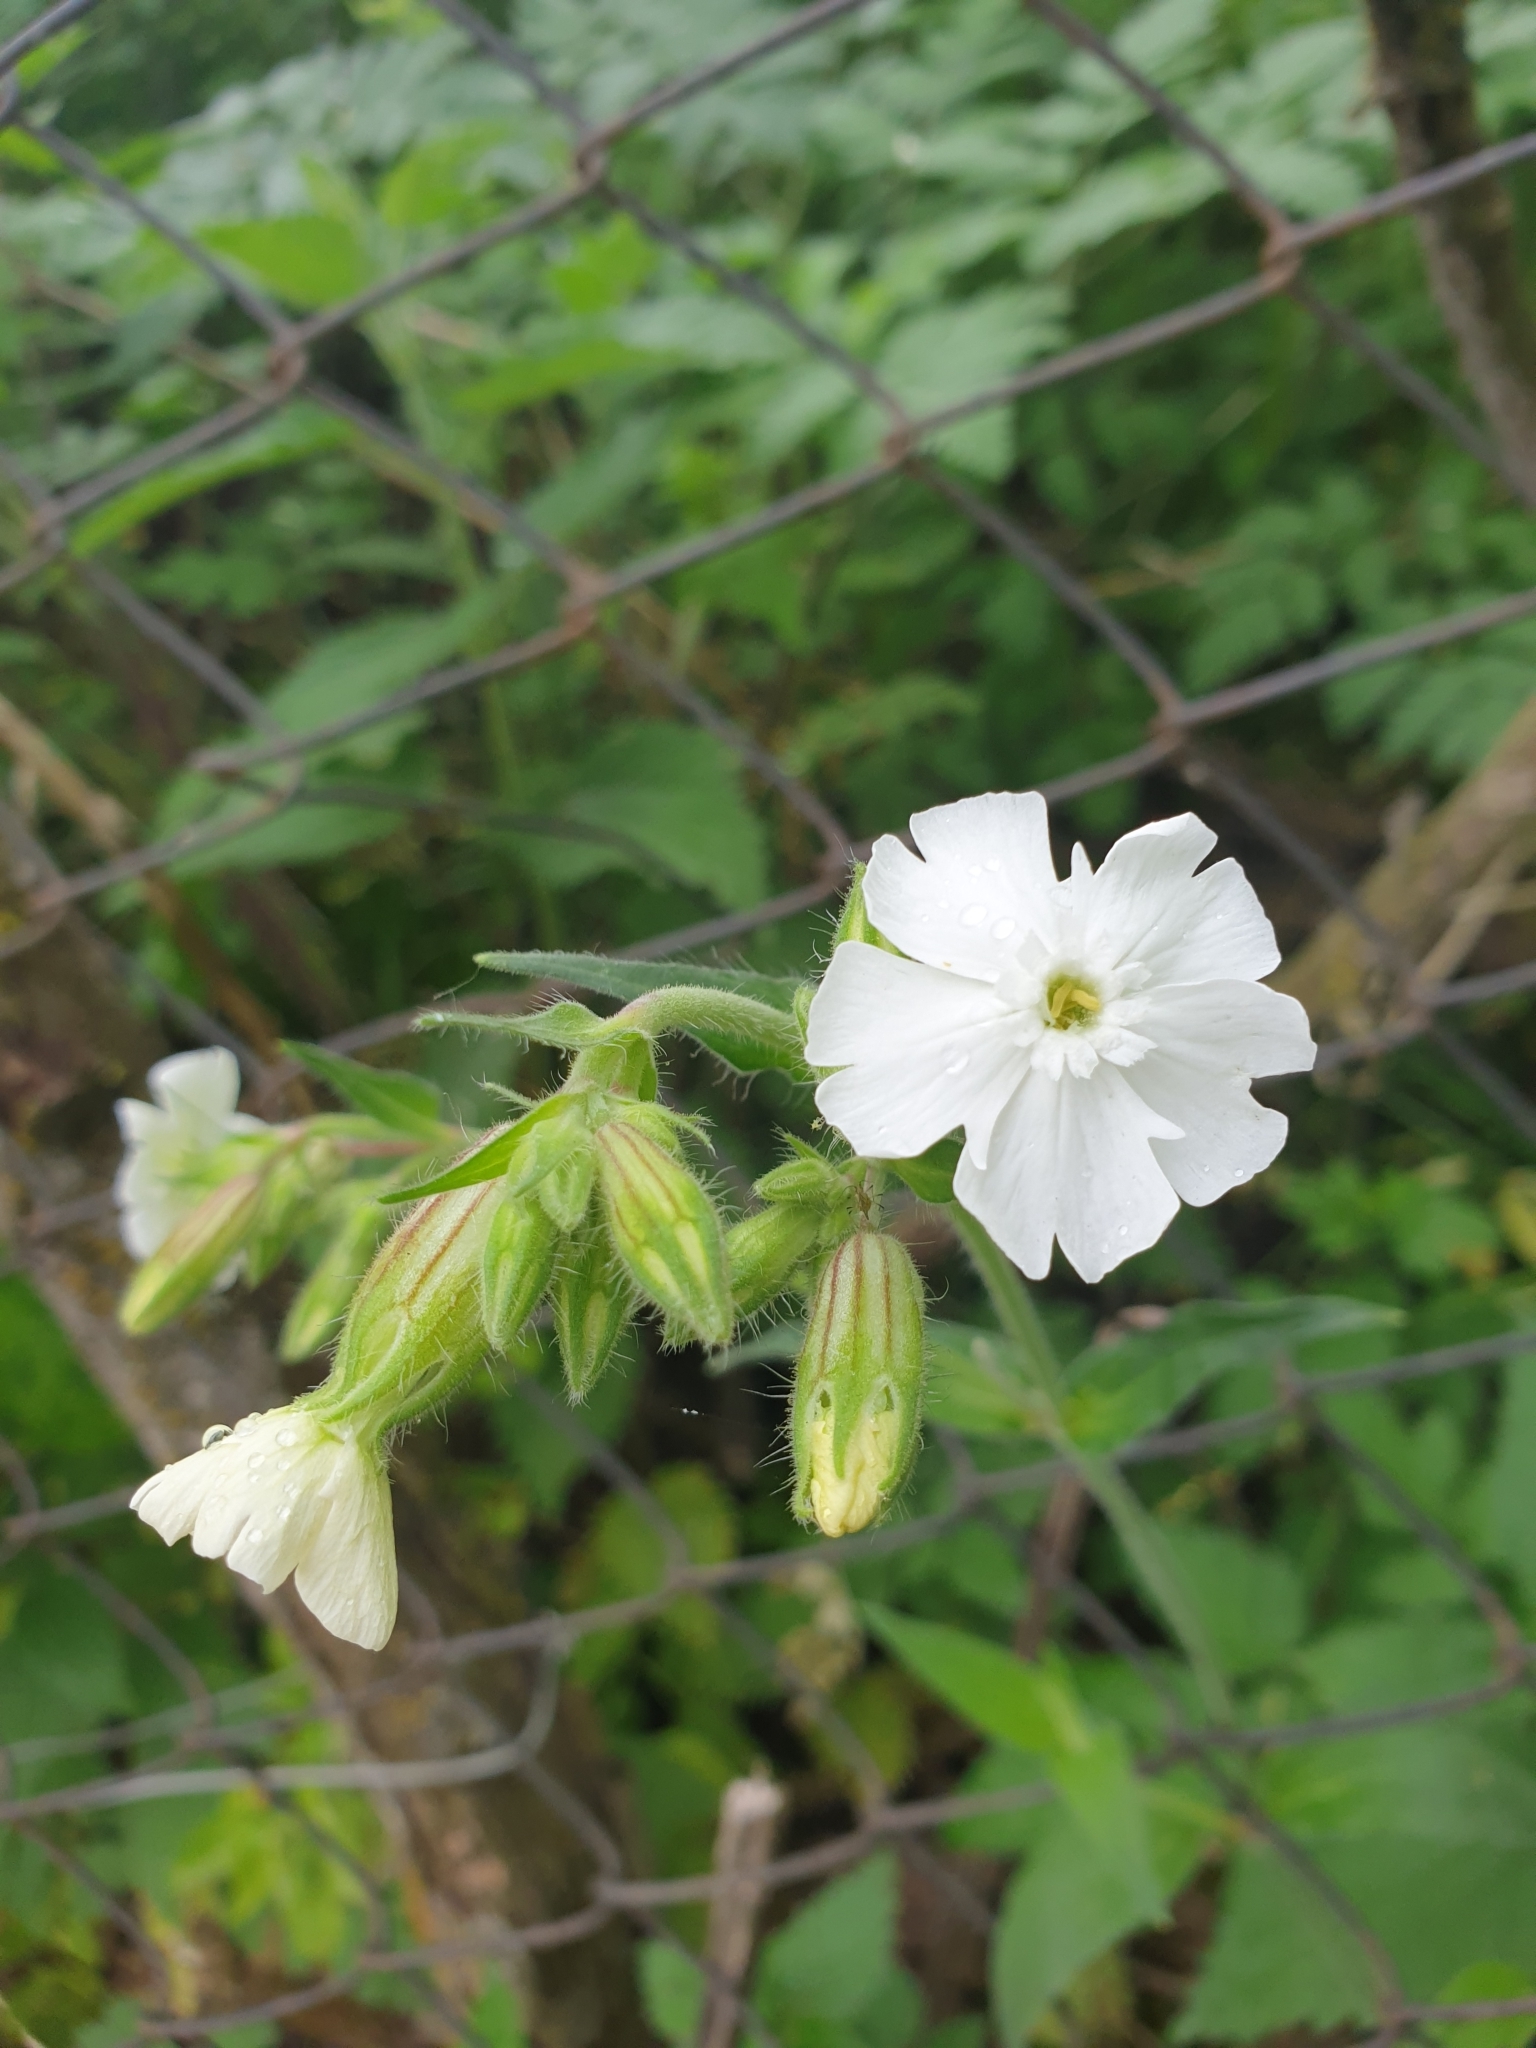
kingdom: Plantae
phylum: Tracheophyta
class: Magnoliopsida
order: Caryophyllales
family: Caryophyllaceae
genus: Silene
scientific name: Silene latifolia
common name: White campion
